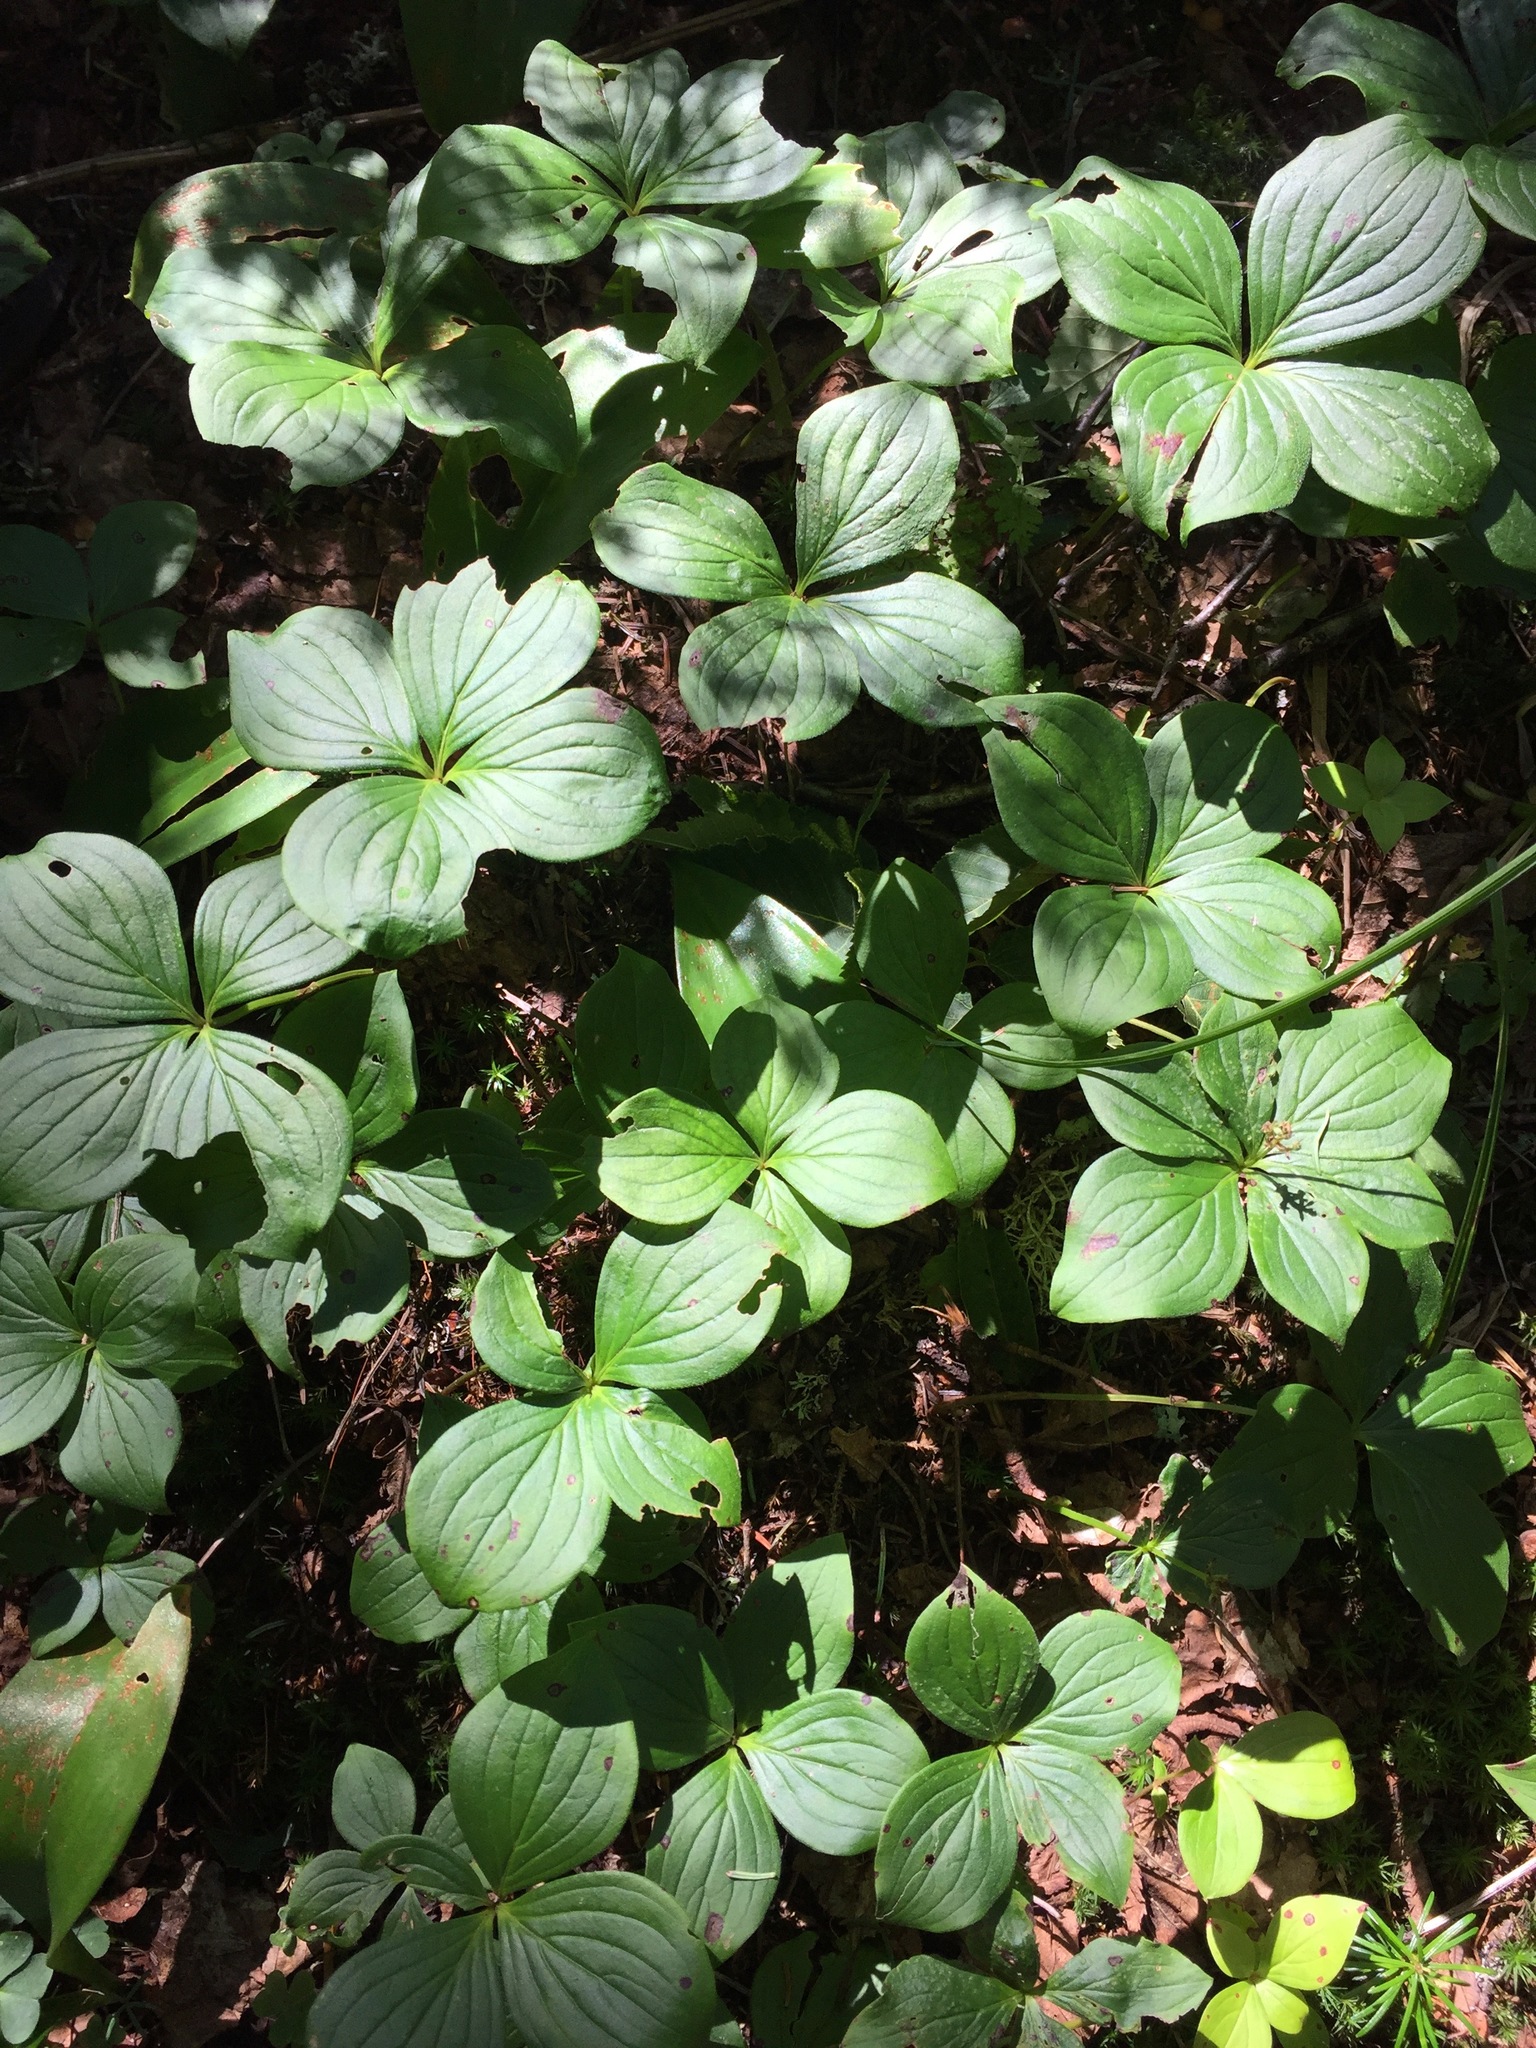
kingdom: Plantae
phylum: Tracheophyta
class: Magnoliopsida
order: Cornales
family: Cornaceae
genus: Cornus
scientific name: Cornus canadensis
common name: Creeping dogwood
